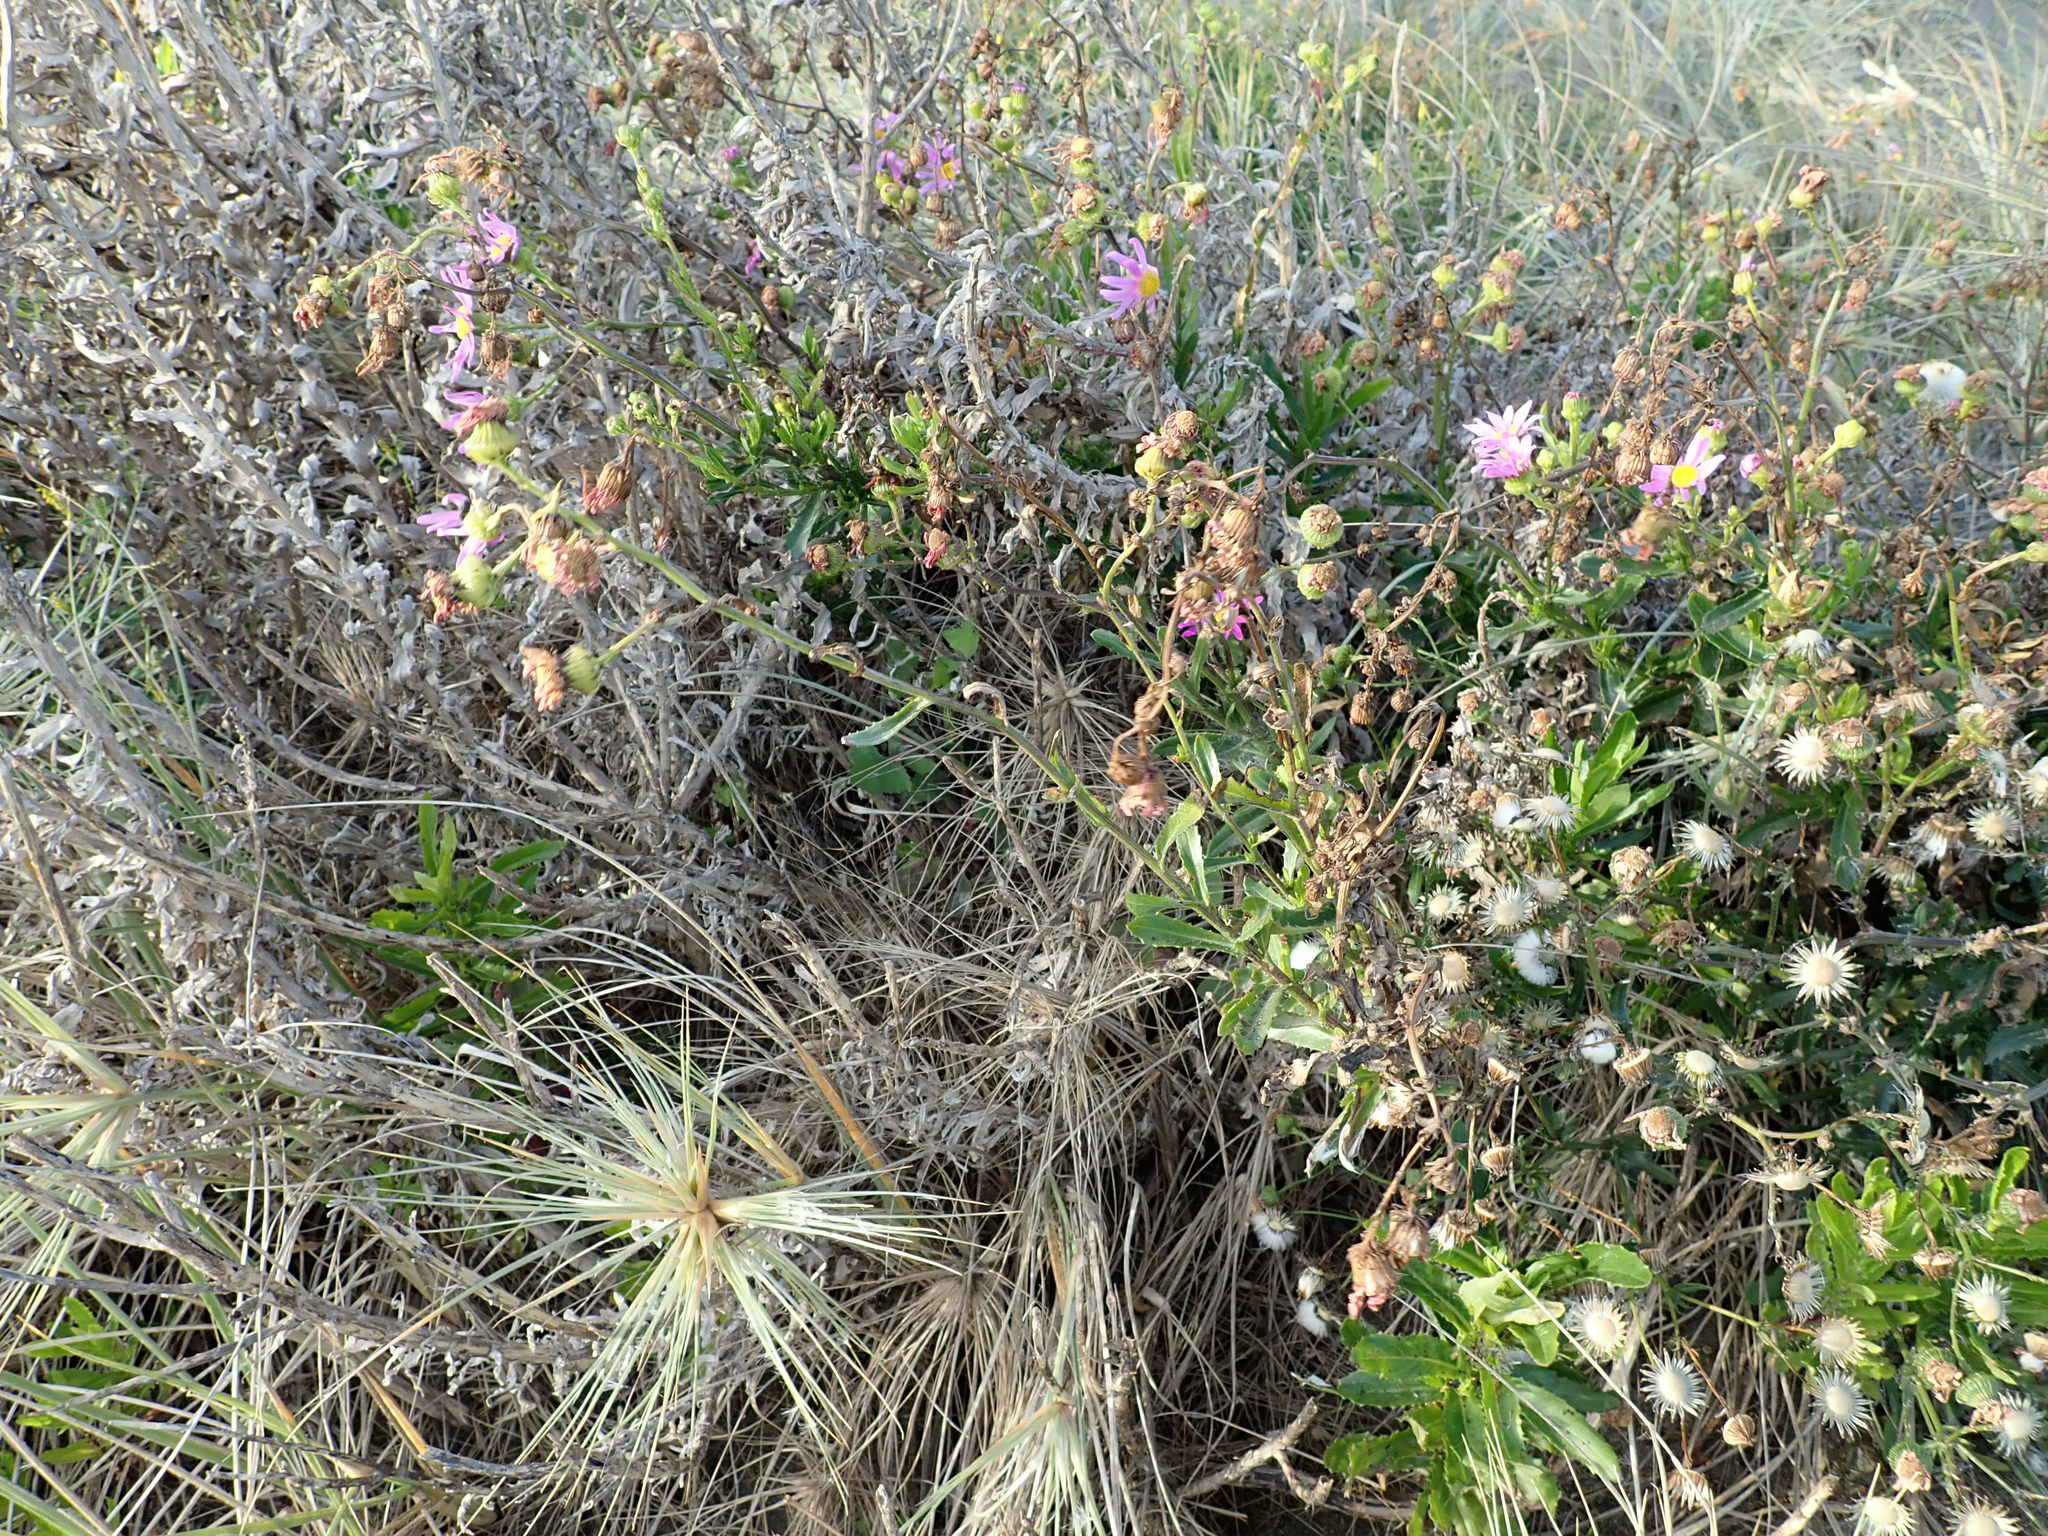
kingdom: Plantae
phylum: Tracheophyta
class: Magnoliopsida
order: Asterales
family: Asteraceae
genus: Senecio
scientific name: Senecio glastifolius
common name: Woad-leaved ragwort
